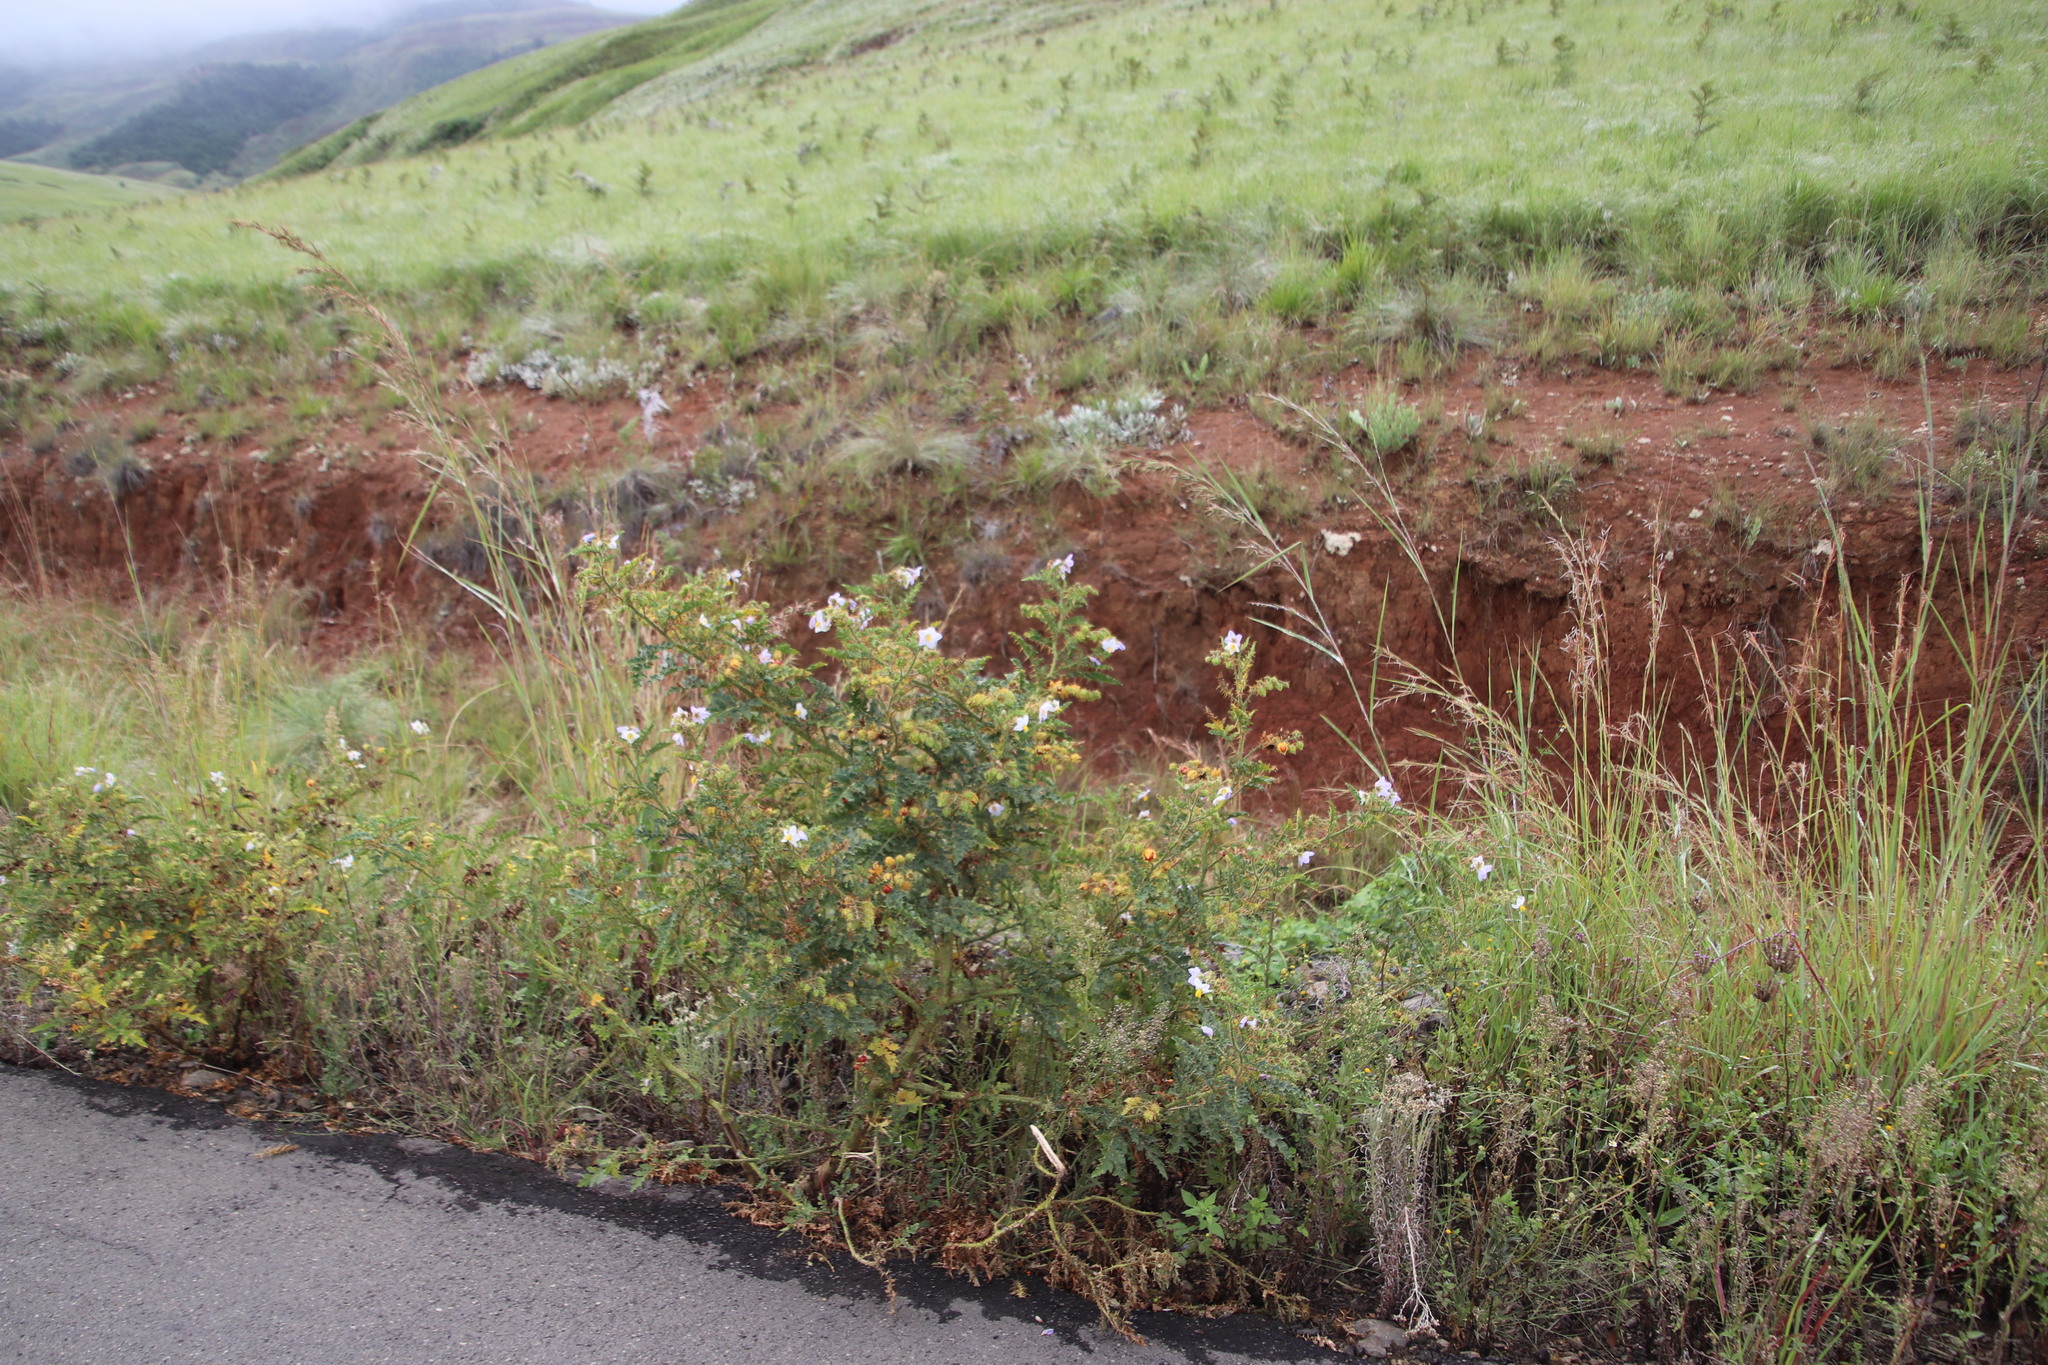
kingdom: Plantae
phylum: Tracheophyta
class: Magnoliopsida
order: Solanales
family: Solanaceae
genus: Solanum
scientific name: Solanum sisymbriifolium
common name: Red buffalo-bur
